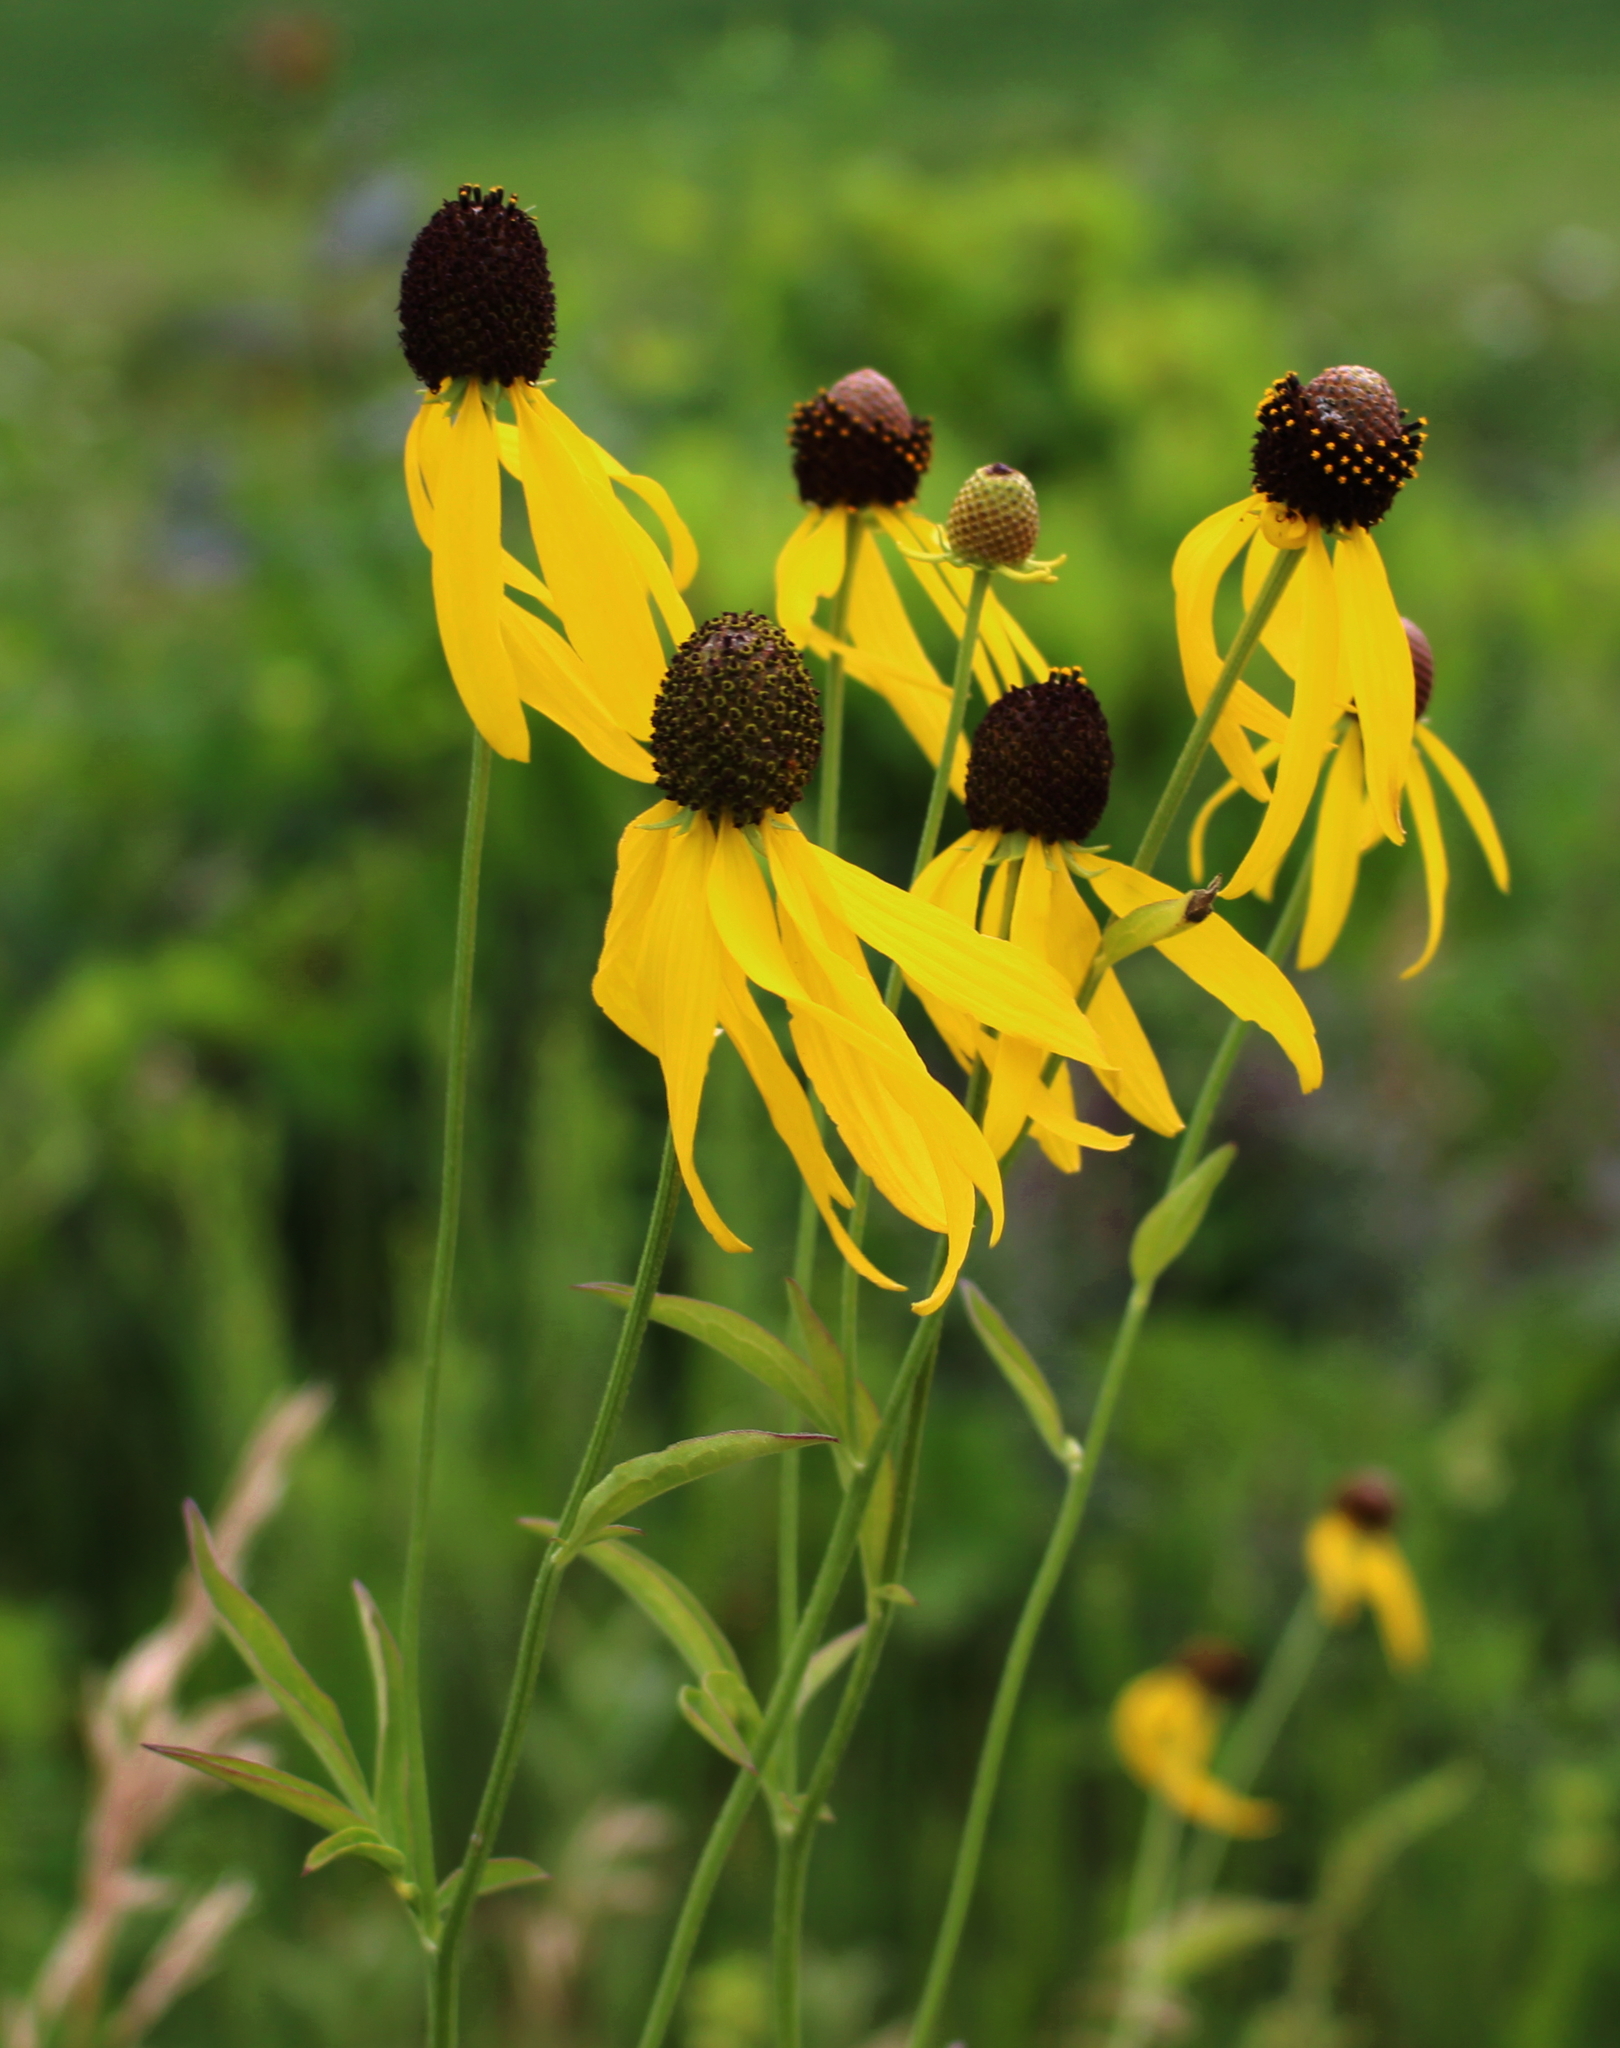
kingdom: Plantae
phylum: Tracheophyta
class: Magnoliopsida
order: Asterales
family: Asteraceae
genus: Ratibida
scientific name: Ratibida pinnata
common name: Drooping prairie-coneflower
